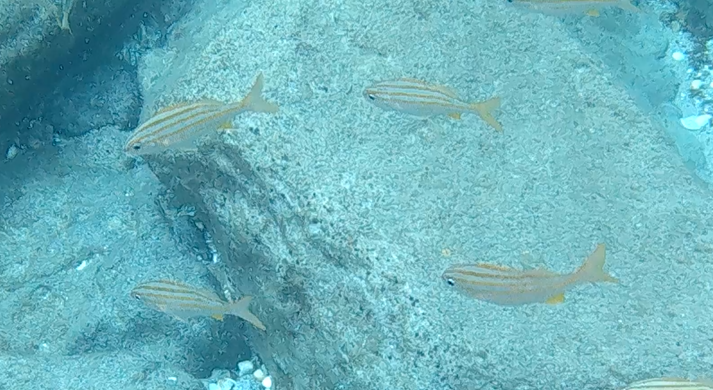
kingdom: Animalia
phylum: Chordata
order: Perciformes
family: Haemulidae
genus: Haemulon
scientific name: Haemulon chrysargyreum
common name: Smallmouth grunt
